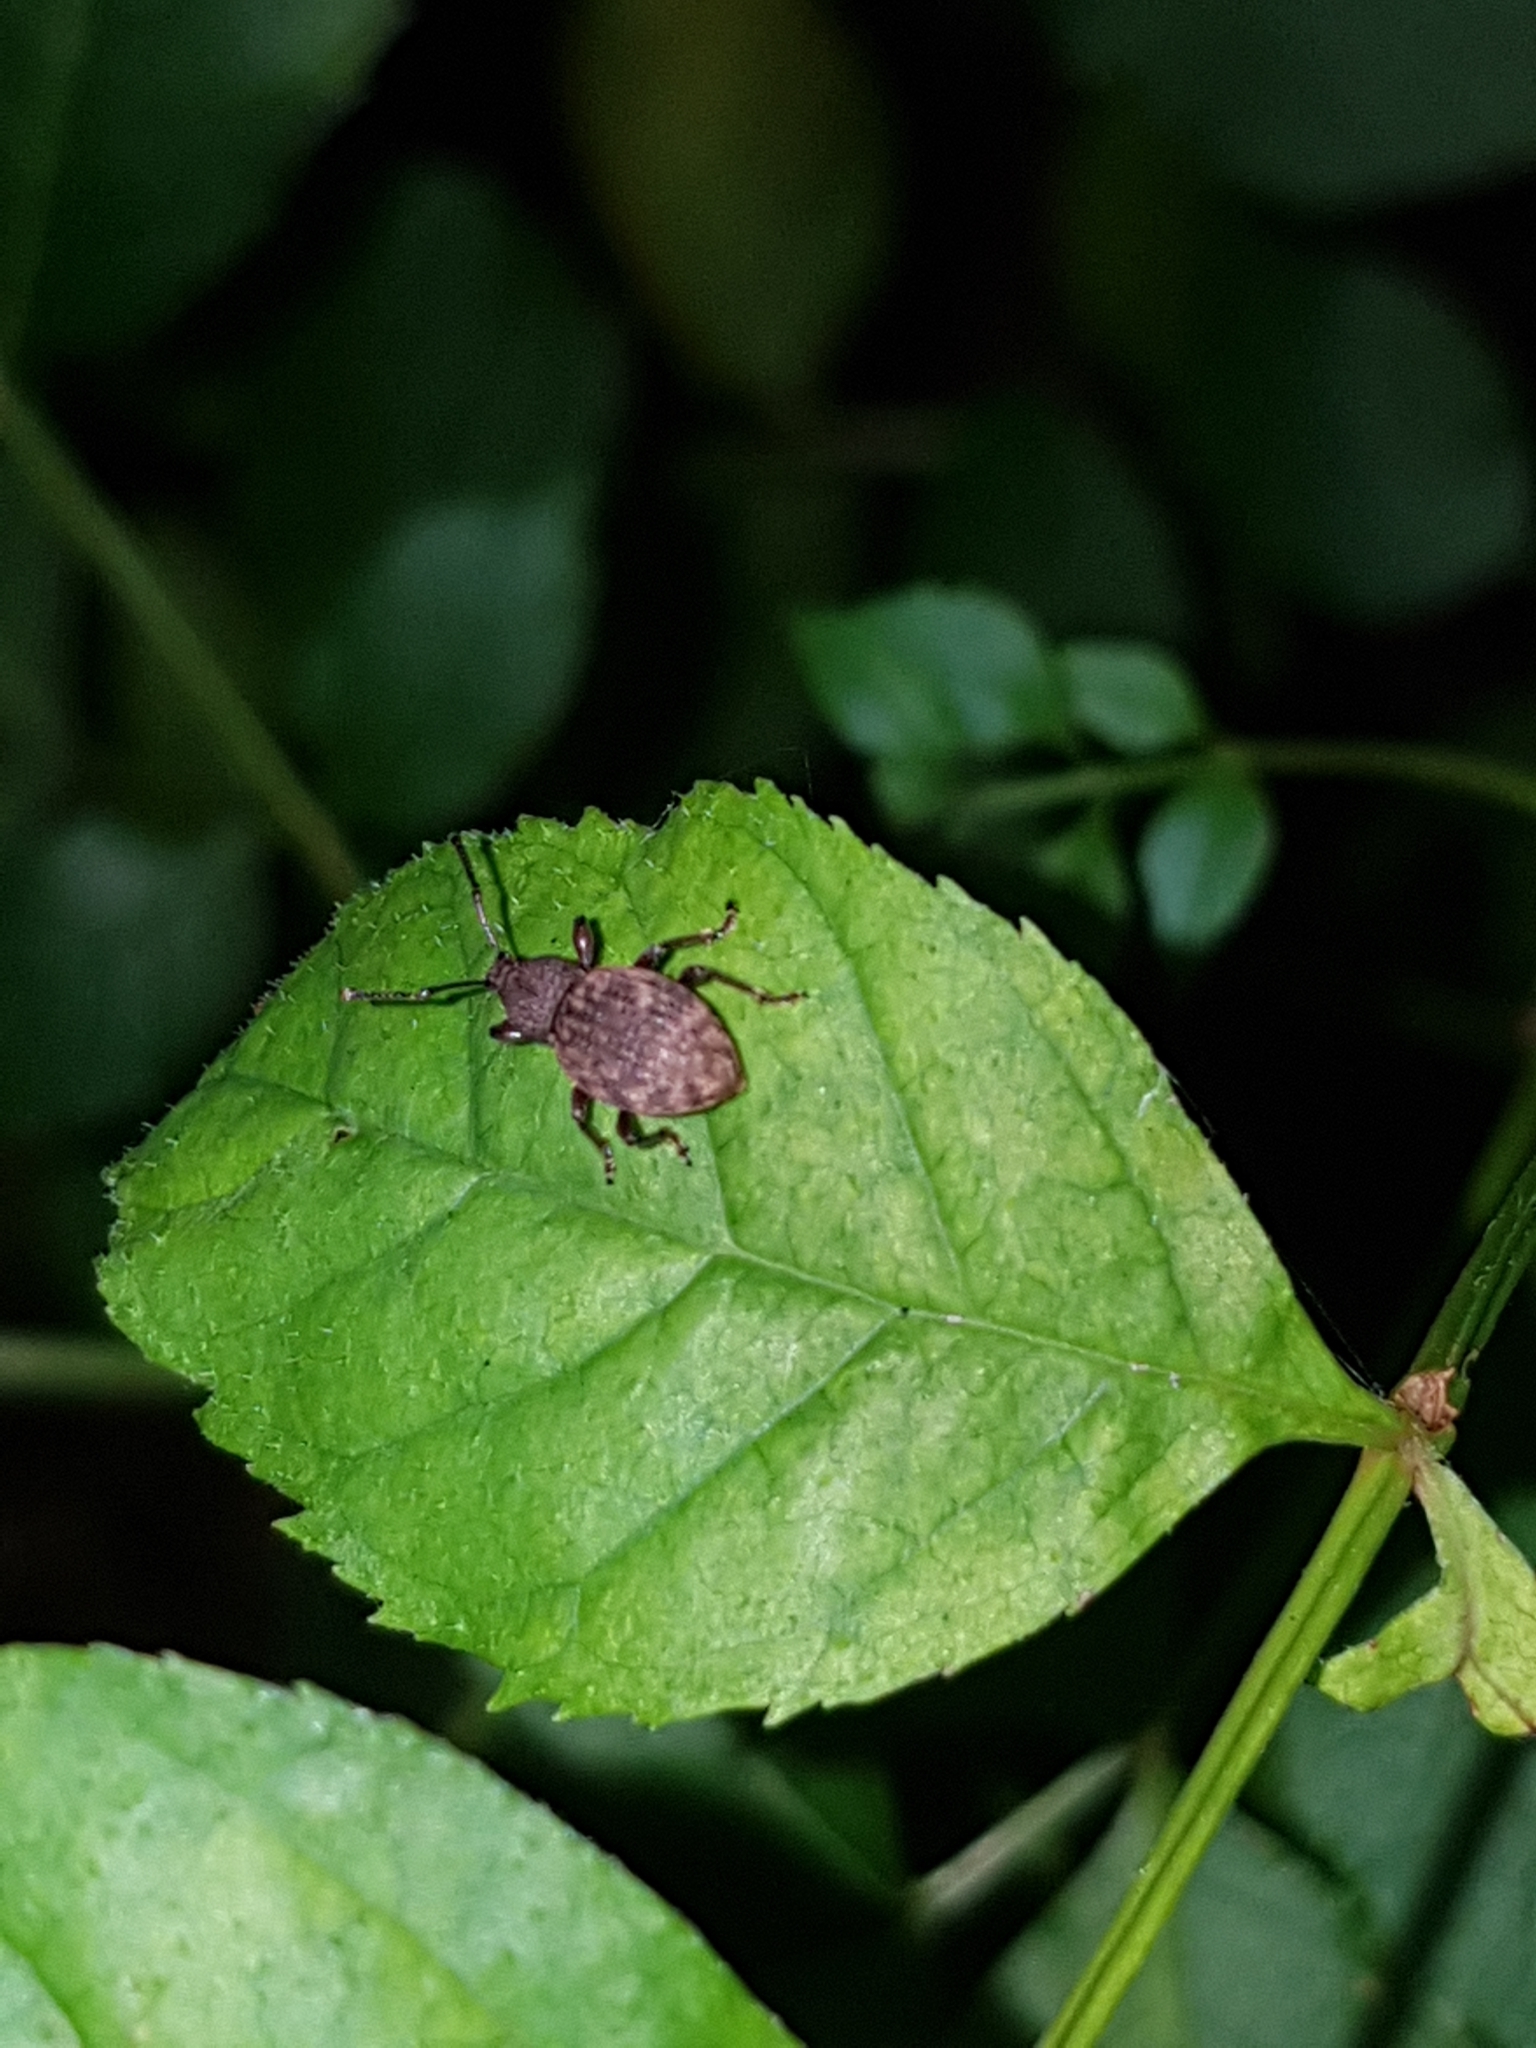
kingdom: Animalia
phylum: Arthropoda
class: Insecta
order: Coleoptera
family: Curculionidae
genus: Otiorhynchus
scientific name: Otiorhynchus raucus
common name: Weevil
